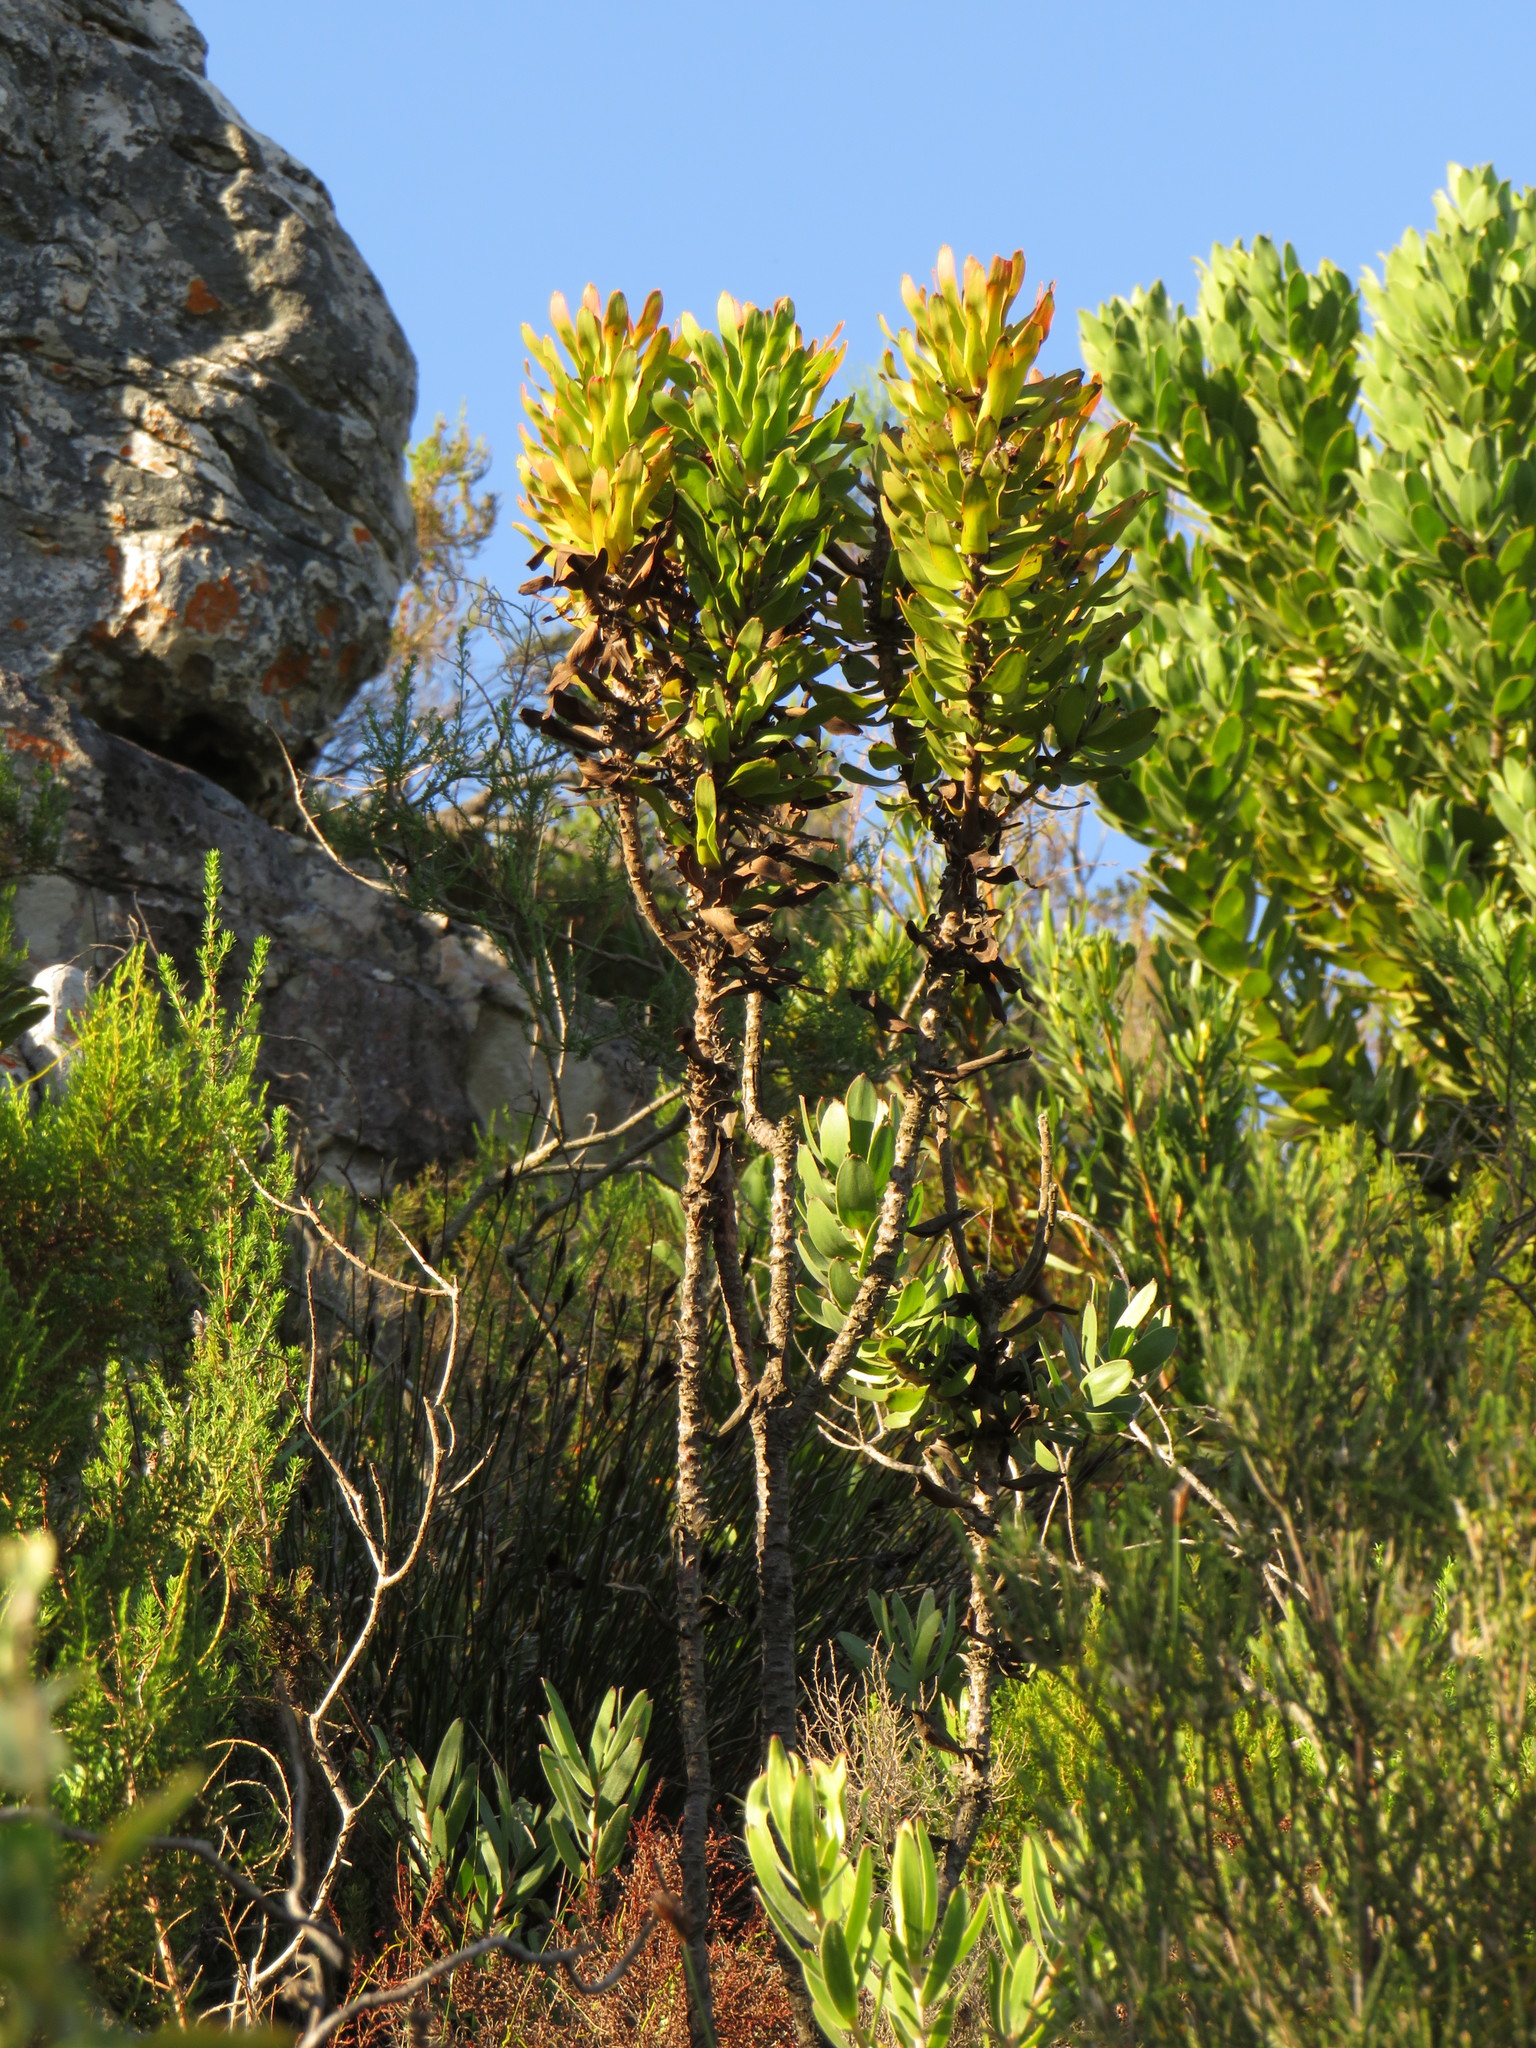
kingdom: Plantae
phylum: Tracheophyta
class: Magnoliopsida
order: Proteales
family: Proteaceae
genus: Mimetes
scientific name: Mimetes cucullatus
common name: Common pagoda
